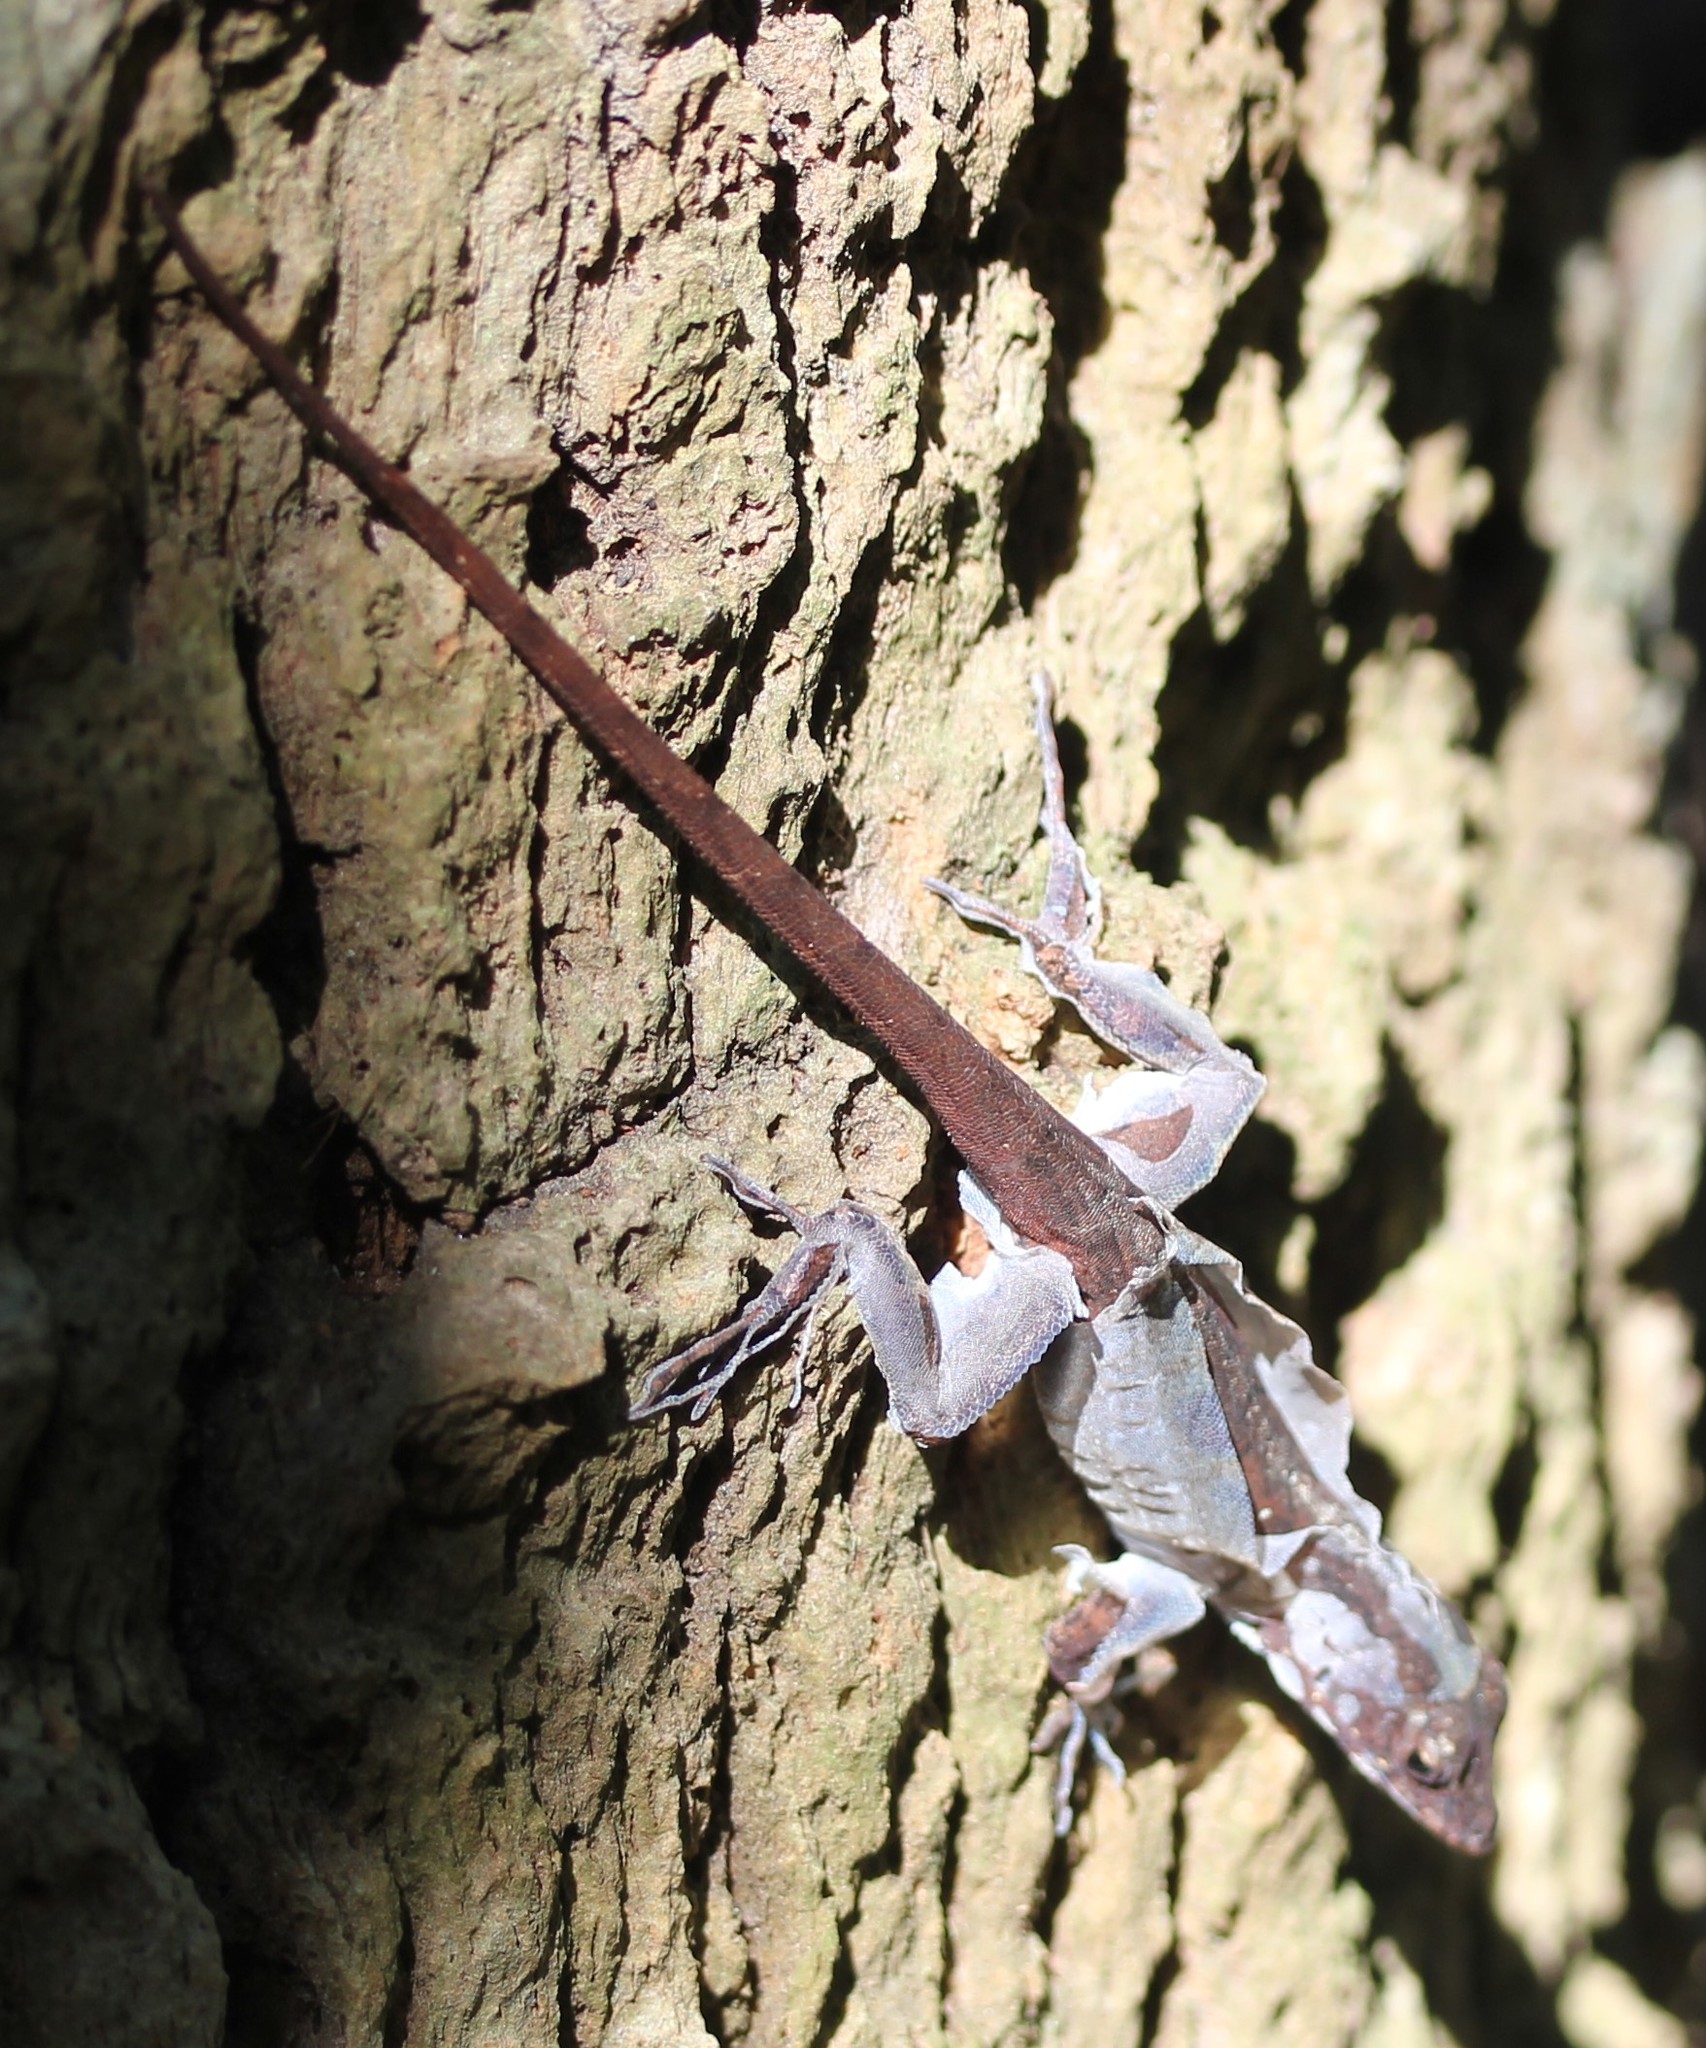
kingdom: Animalia
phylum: Chordata
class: Squamata
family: Dactyloidae
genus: Anolis
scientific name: Anolis sagrei
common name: Brown anole
